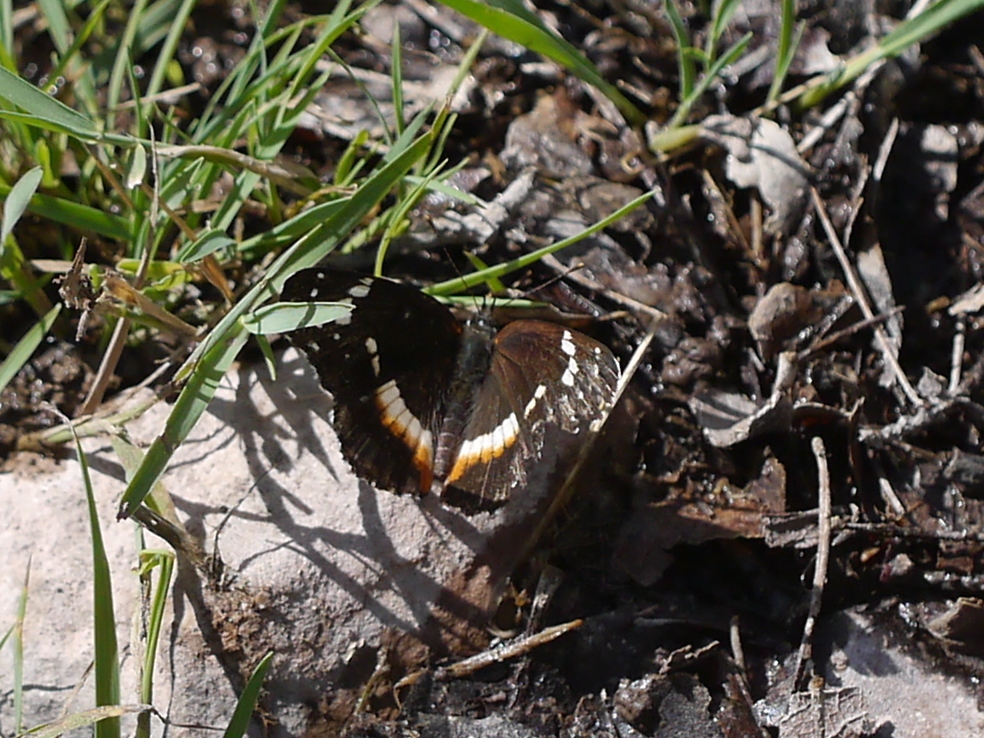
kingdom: Animalia
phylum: Arthropoda
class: Insecta
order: Lepidoptera
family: Nymphalidae
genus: Chlosyne
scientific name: Chlosyne lacinia
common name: Bordered patch
